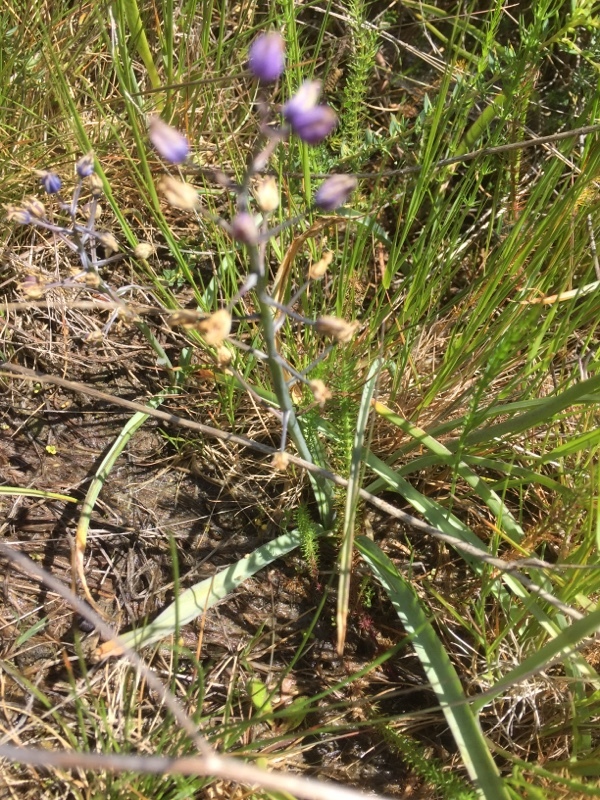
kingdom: Plantae
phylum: Tracheophyta
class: Liliopsida
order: Asparagales
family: Asparagaceae
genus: Scilla
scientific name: Scilla verna
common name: Spring squill
